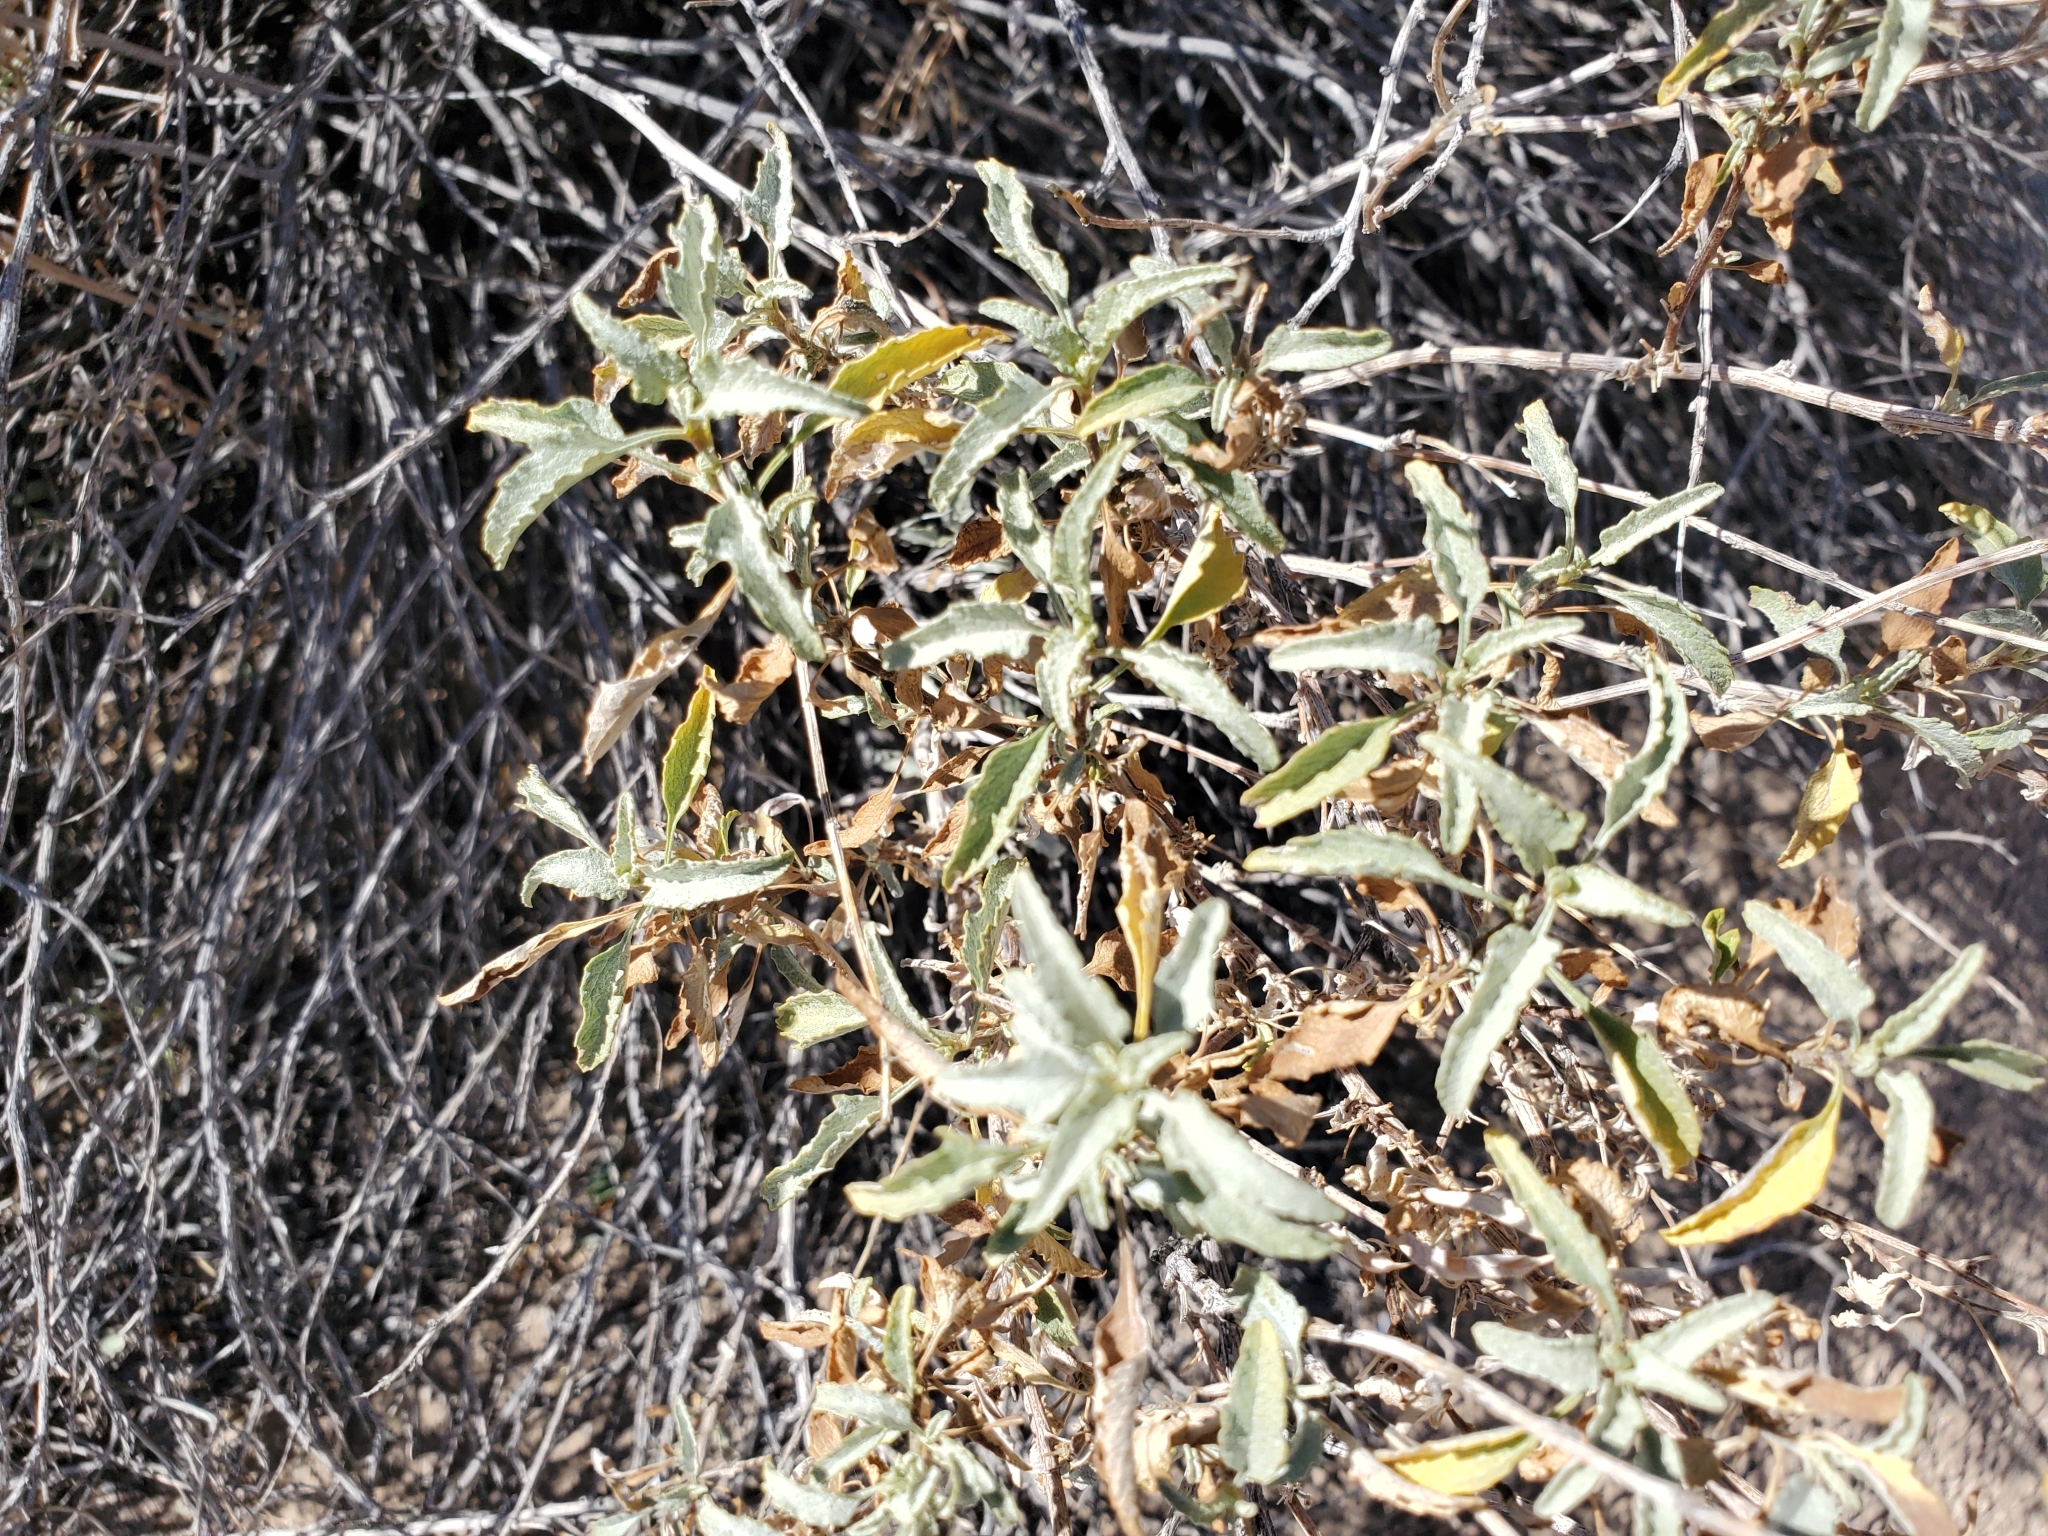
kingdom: Plantae
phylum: Tracheophyta
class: Magnoliopsida
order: Asterales
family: Asteraceae
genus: Ambrosia
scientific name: Ambrosia deltoidea
